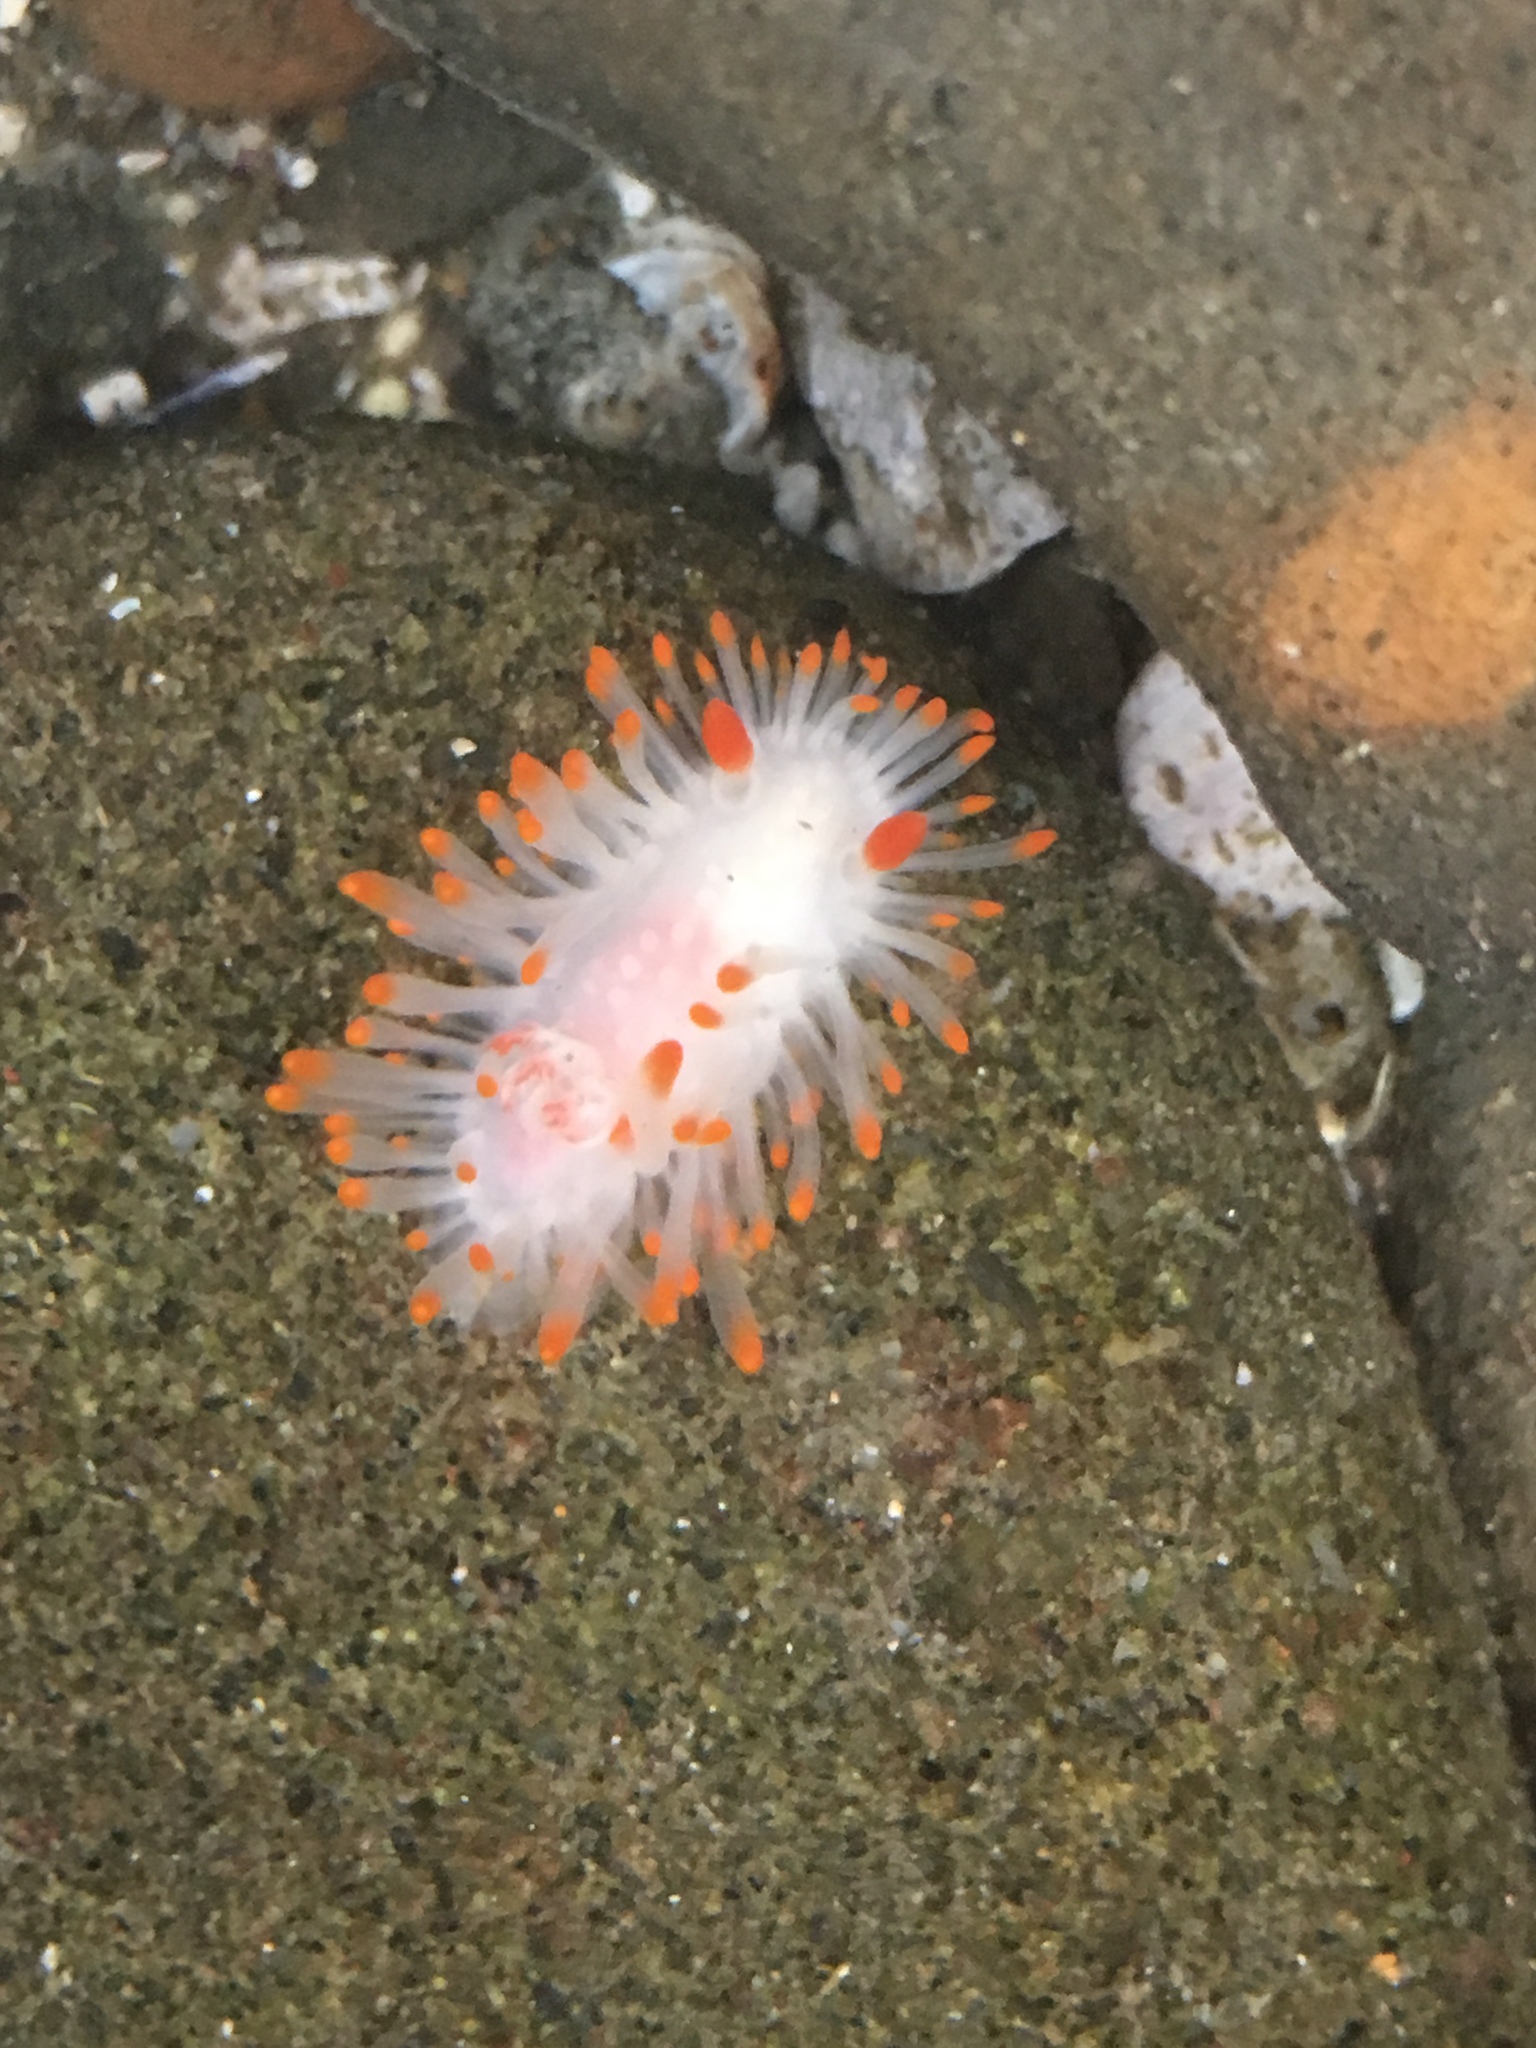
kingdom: Animalia
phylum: Mollusca
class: Gastropoda
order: Nudibranchia
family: Polyceridae
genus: Limacia
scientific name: Limacia cockerelli
